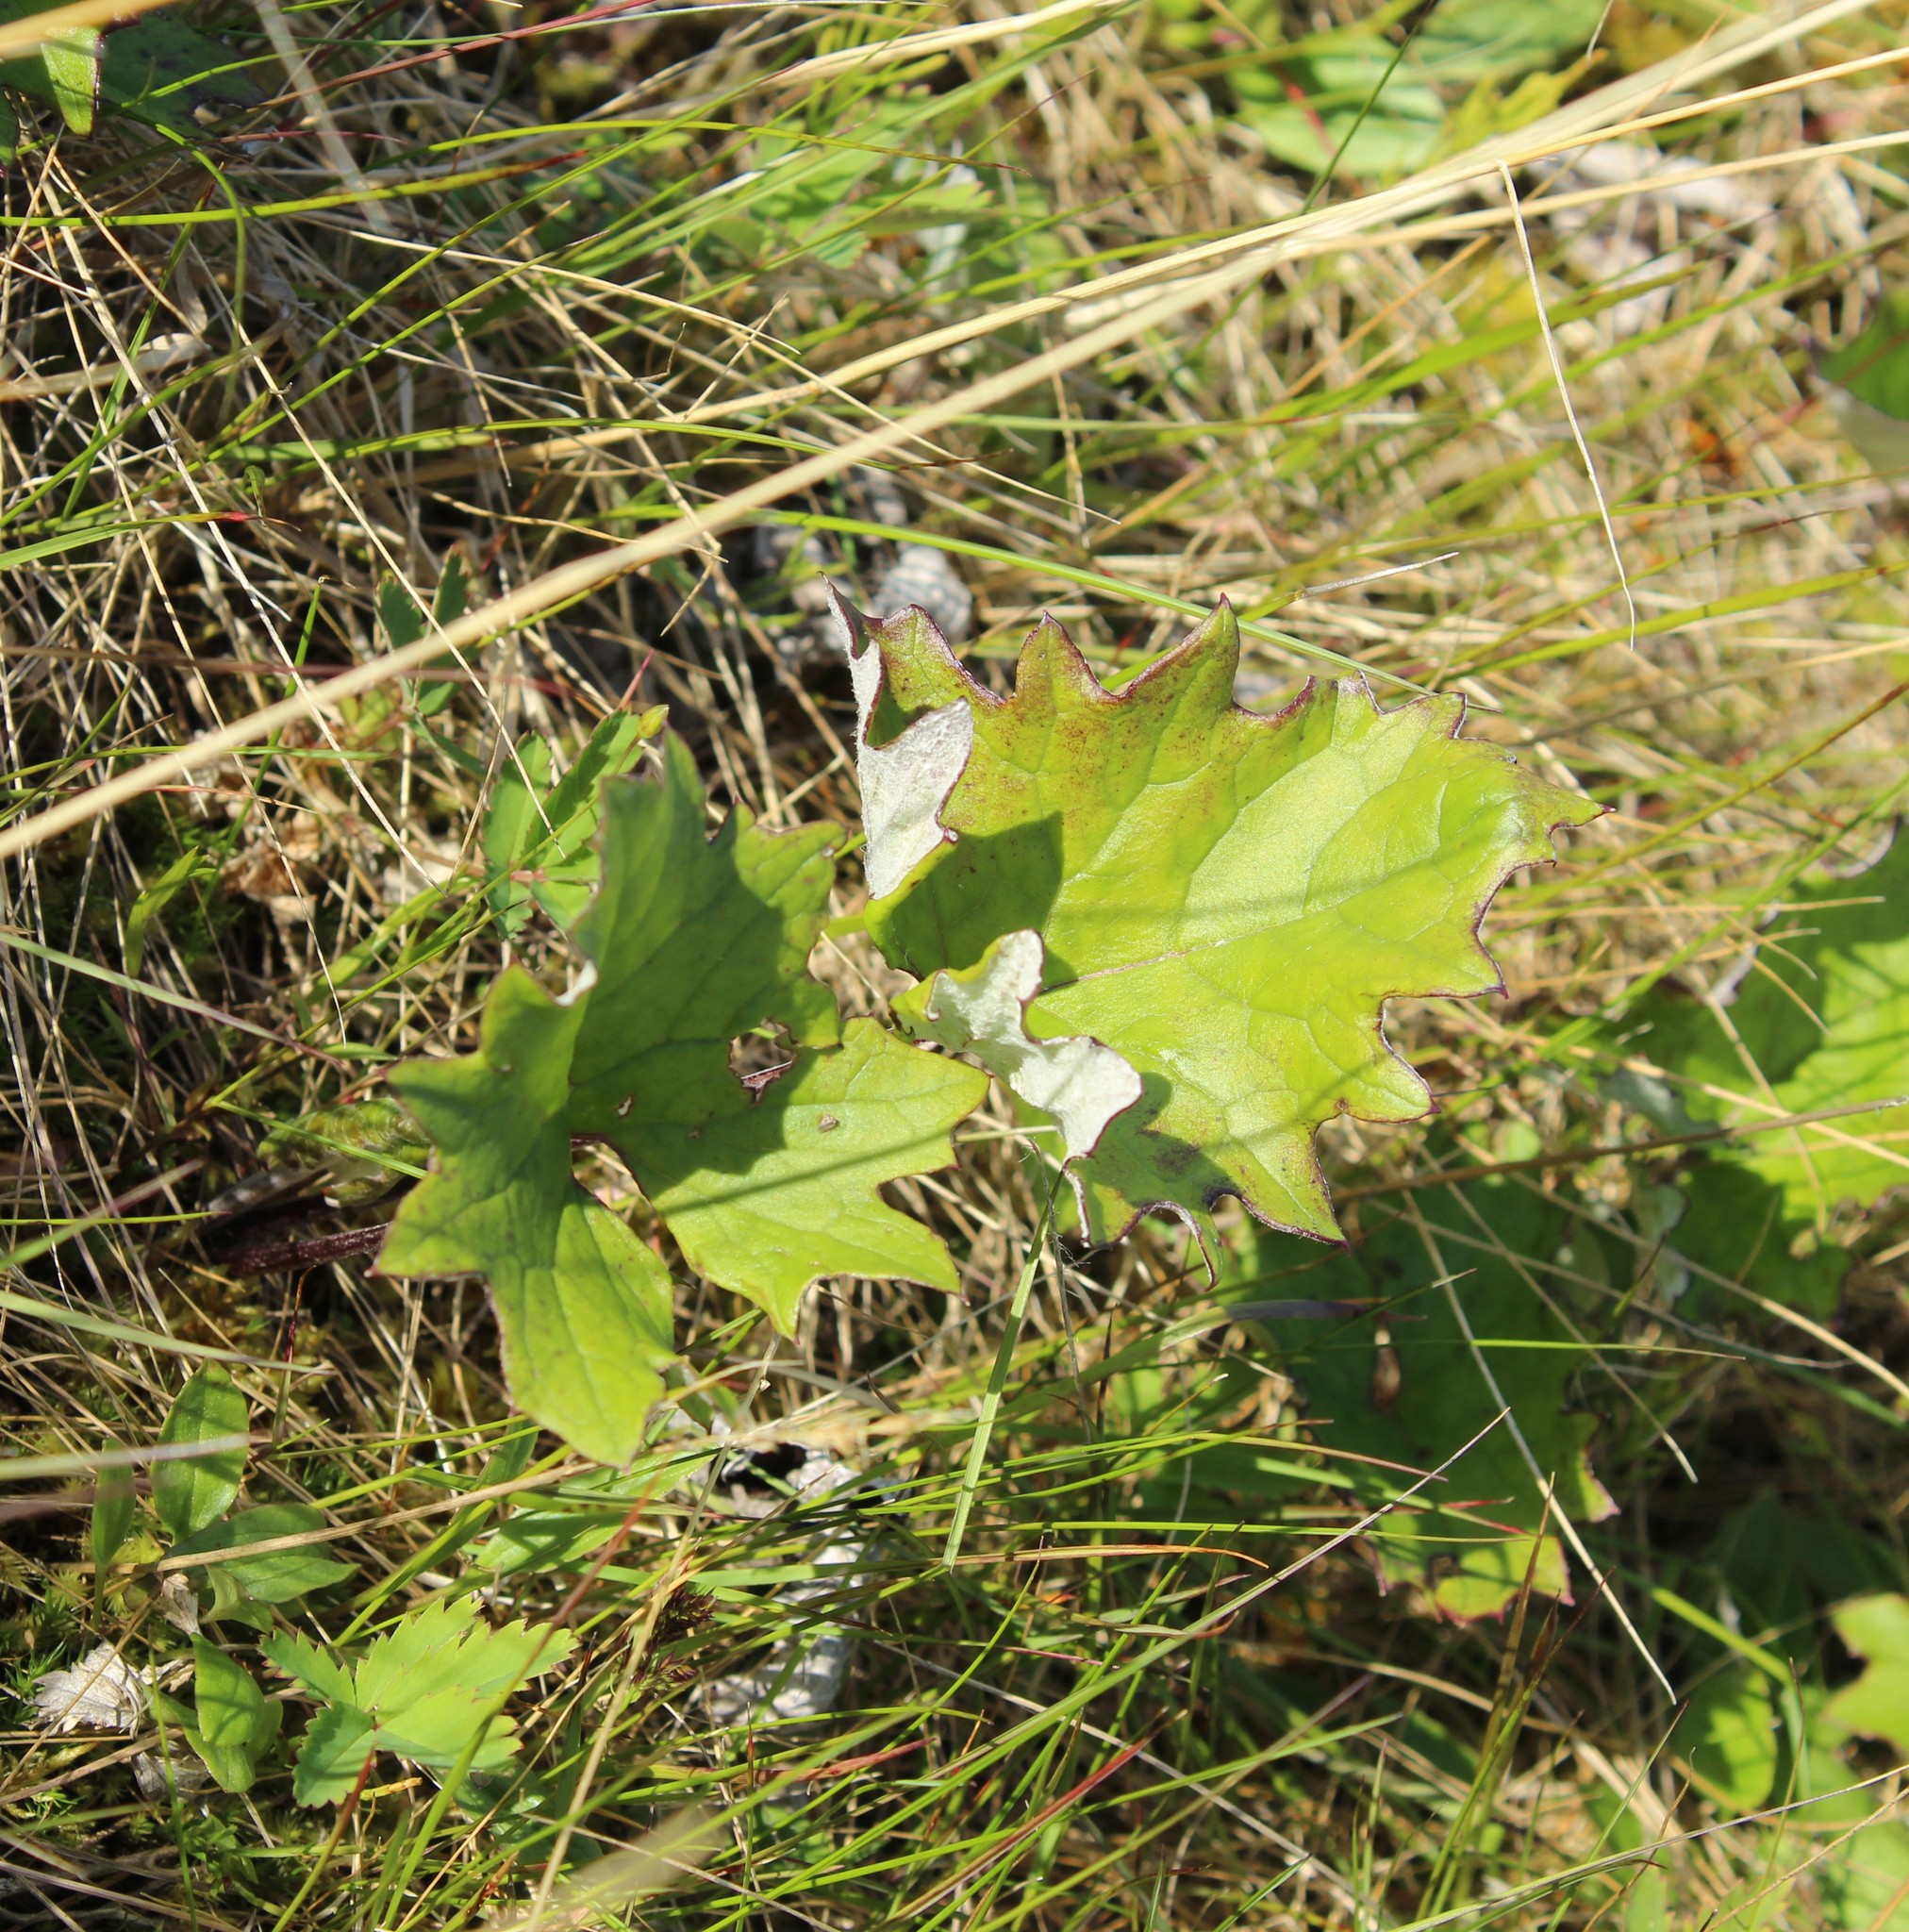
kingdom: Plantae
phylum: Tracheophyta
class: Magnoliopsida
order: Asterales
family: Asteraceae
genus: Petasites
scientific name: Petasites frigidus
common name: Arctic butterbur
